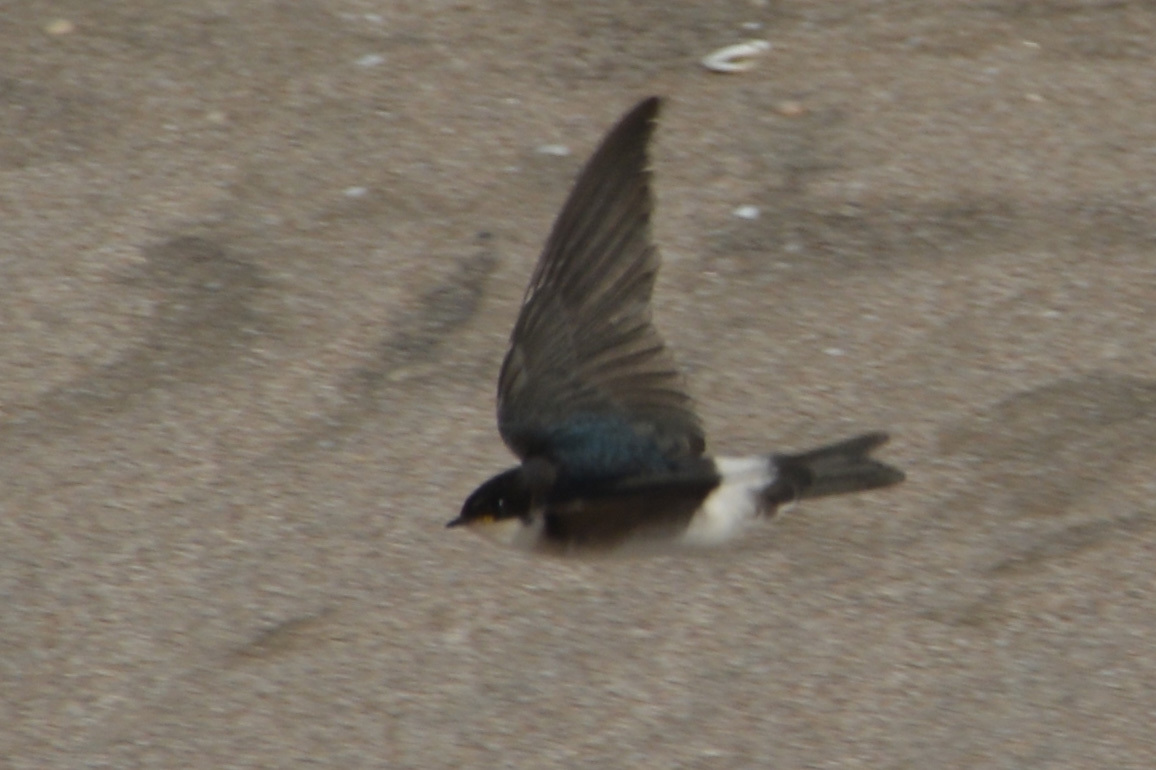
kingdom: Animalia
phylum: Chordata
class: Aves
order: Passeriformes
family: Hirundinidae
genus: Tachycineta
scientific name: Tachycineta leucopyga
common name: Chilean swallow
